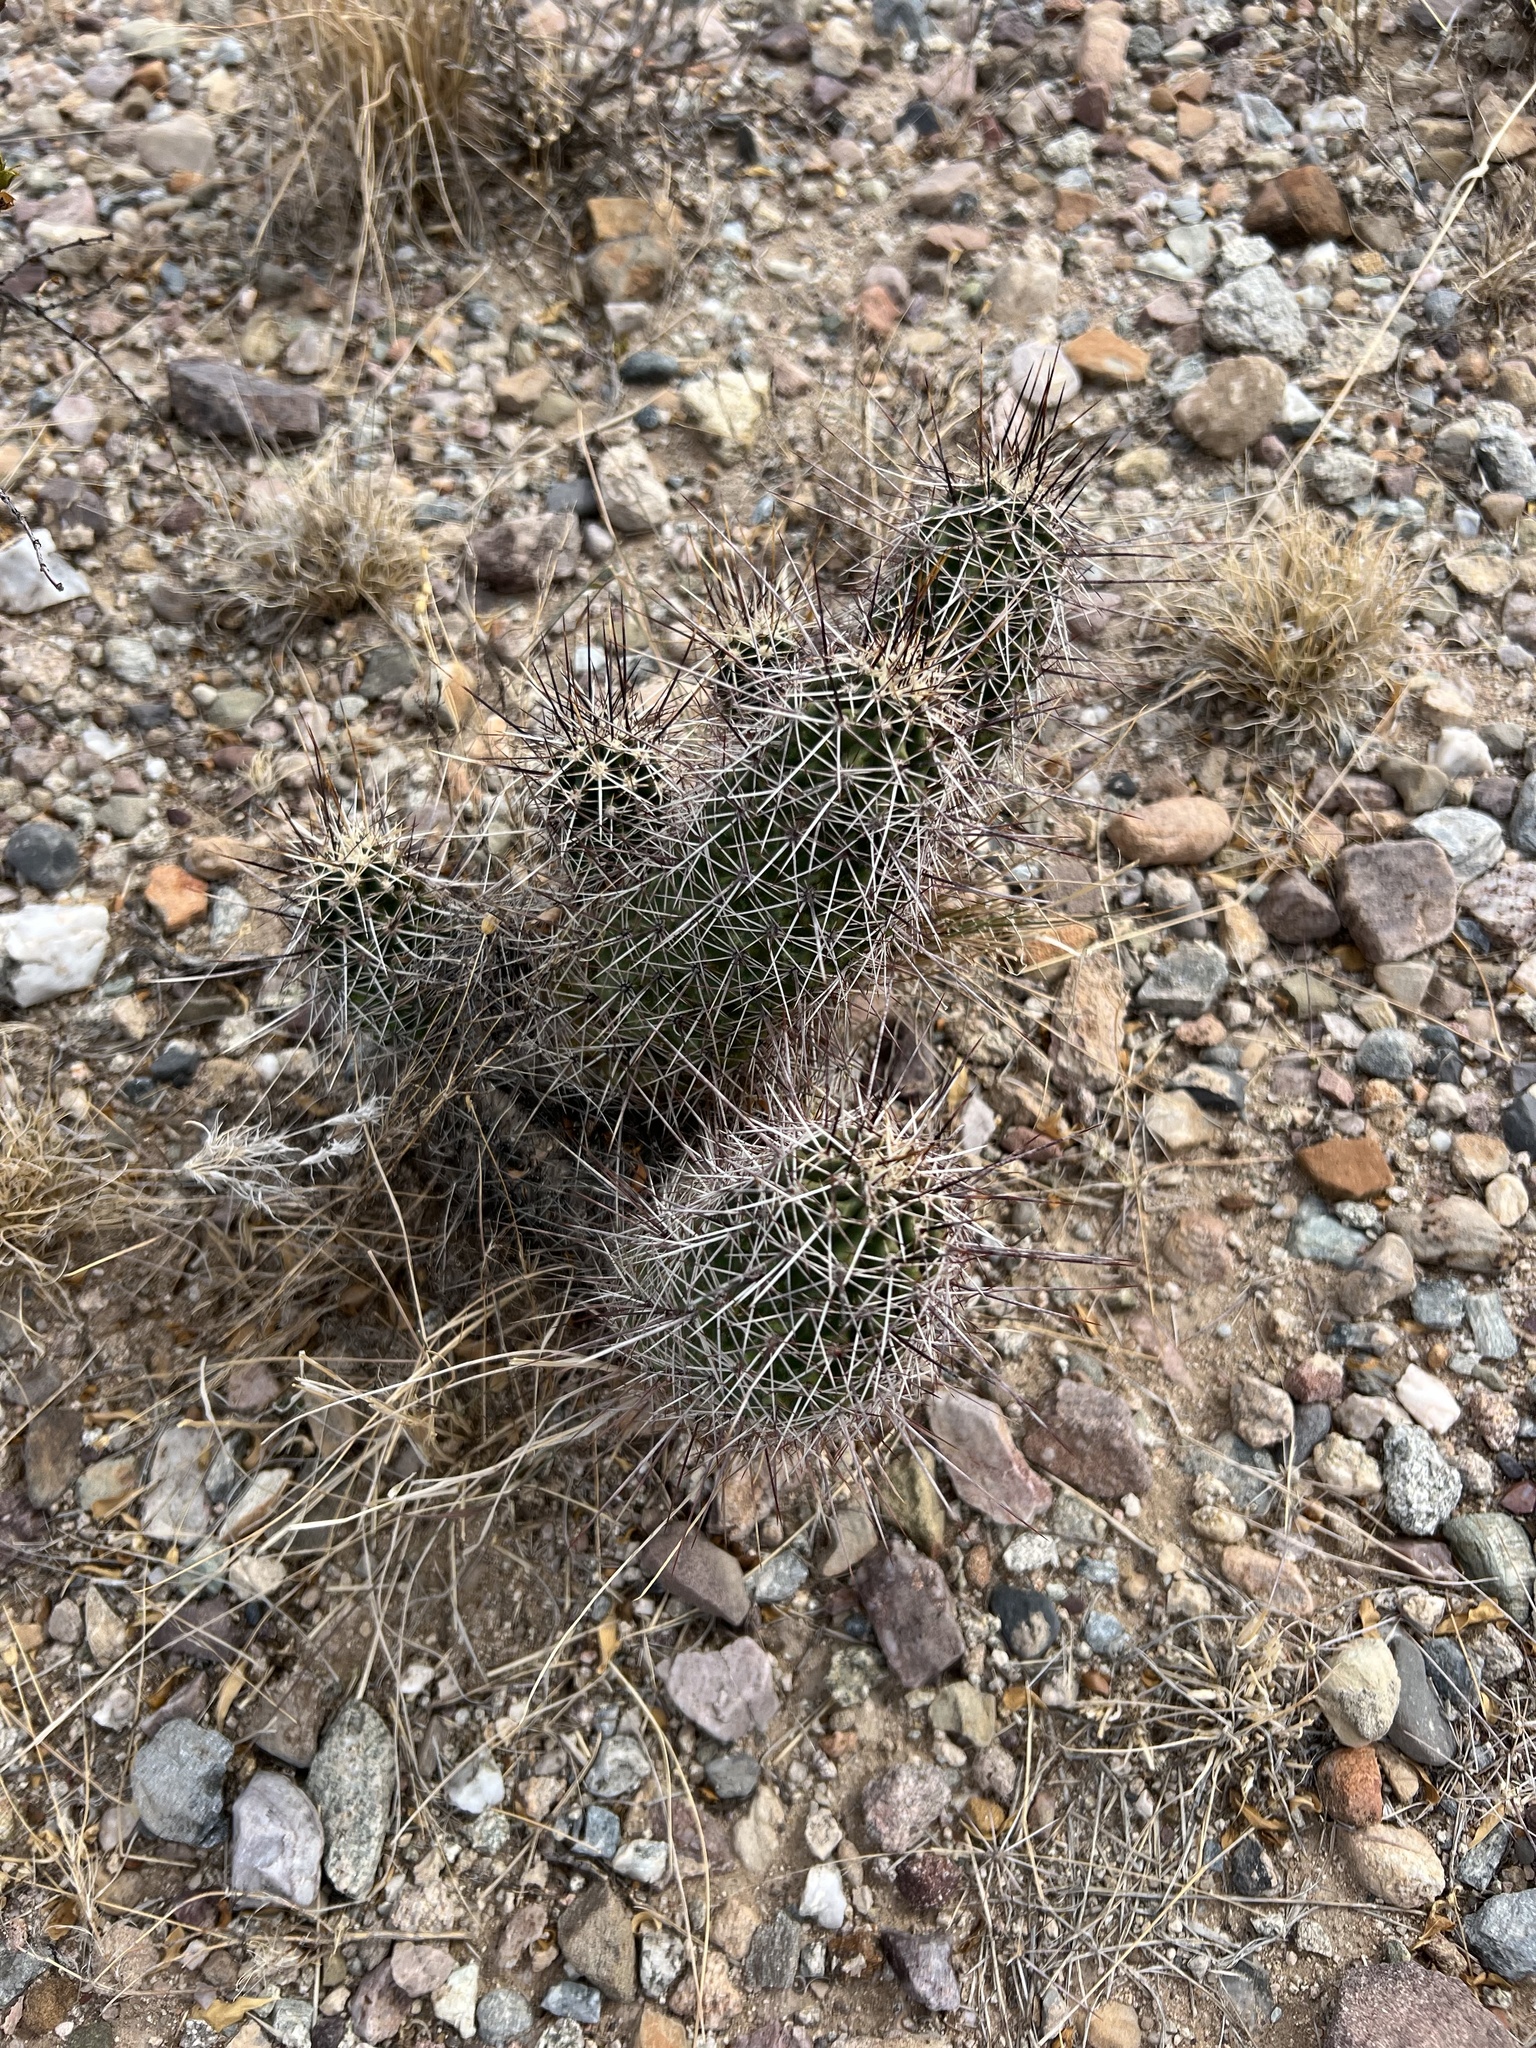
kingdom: Plantae
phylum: Tracheophyta
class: Magnoliopsida
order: Caryophyllales
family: Cactaceae
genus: Echinocereus
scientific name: Echinocereus fasciculatus
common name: Bundle hedgehog
